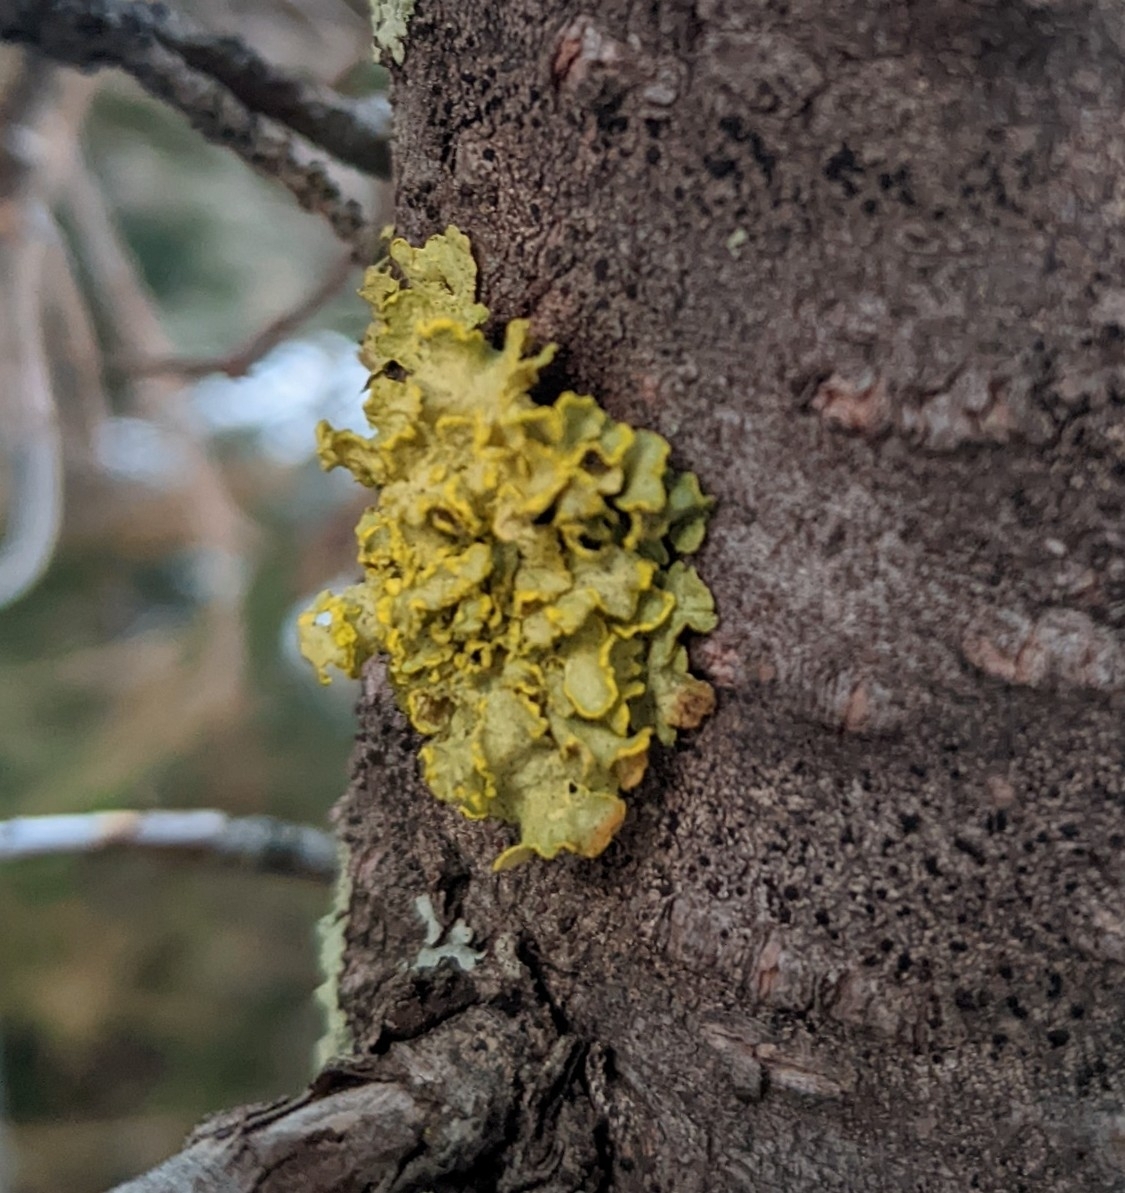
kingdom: Fungi
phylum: Ascomycota
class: Lecanoromycetes
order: Lecanorales
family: Parmeliaceae
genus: Vulpicida
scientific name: Vulpicida pinastri
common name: Powdered sunshine lichen
